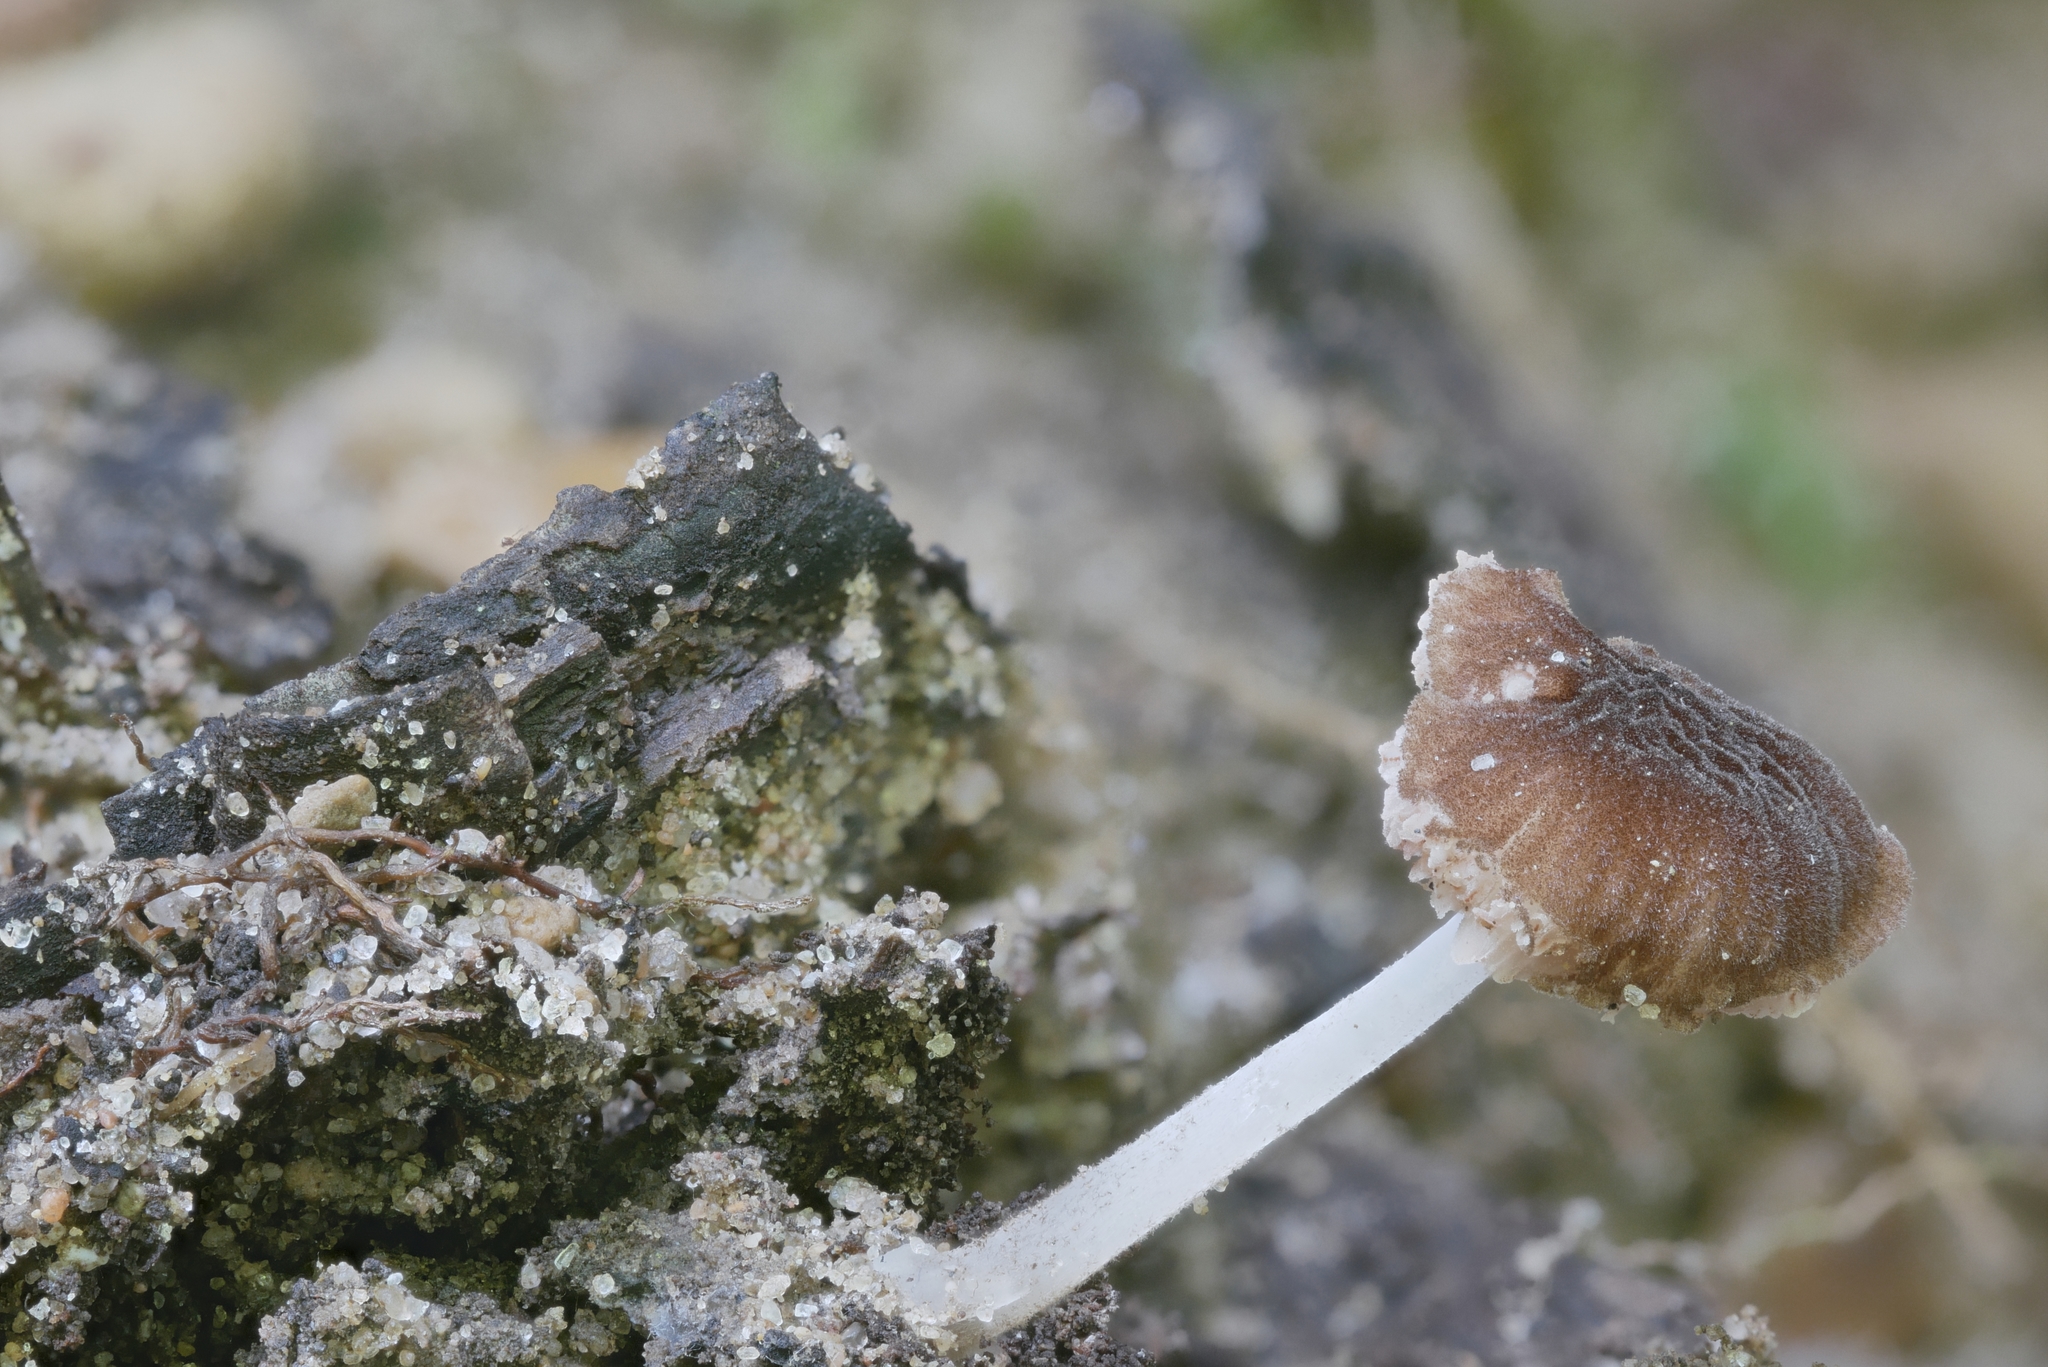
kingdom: Fungi
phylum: Basidiomycota
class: Agaricomycetes
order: Agaricales
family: Pluteaceae
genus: Pluteus
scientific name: Pluteus podospileus
